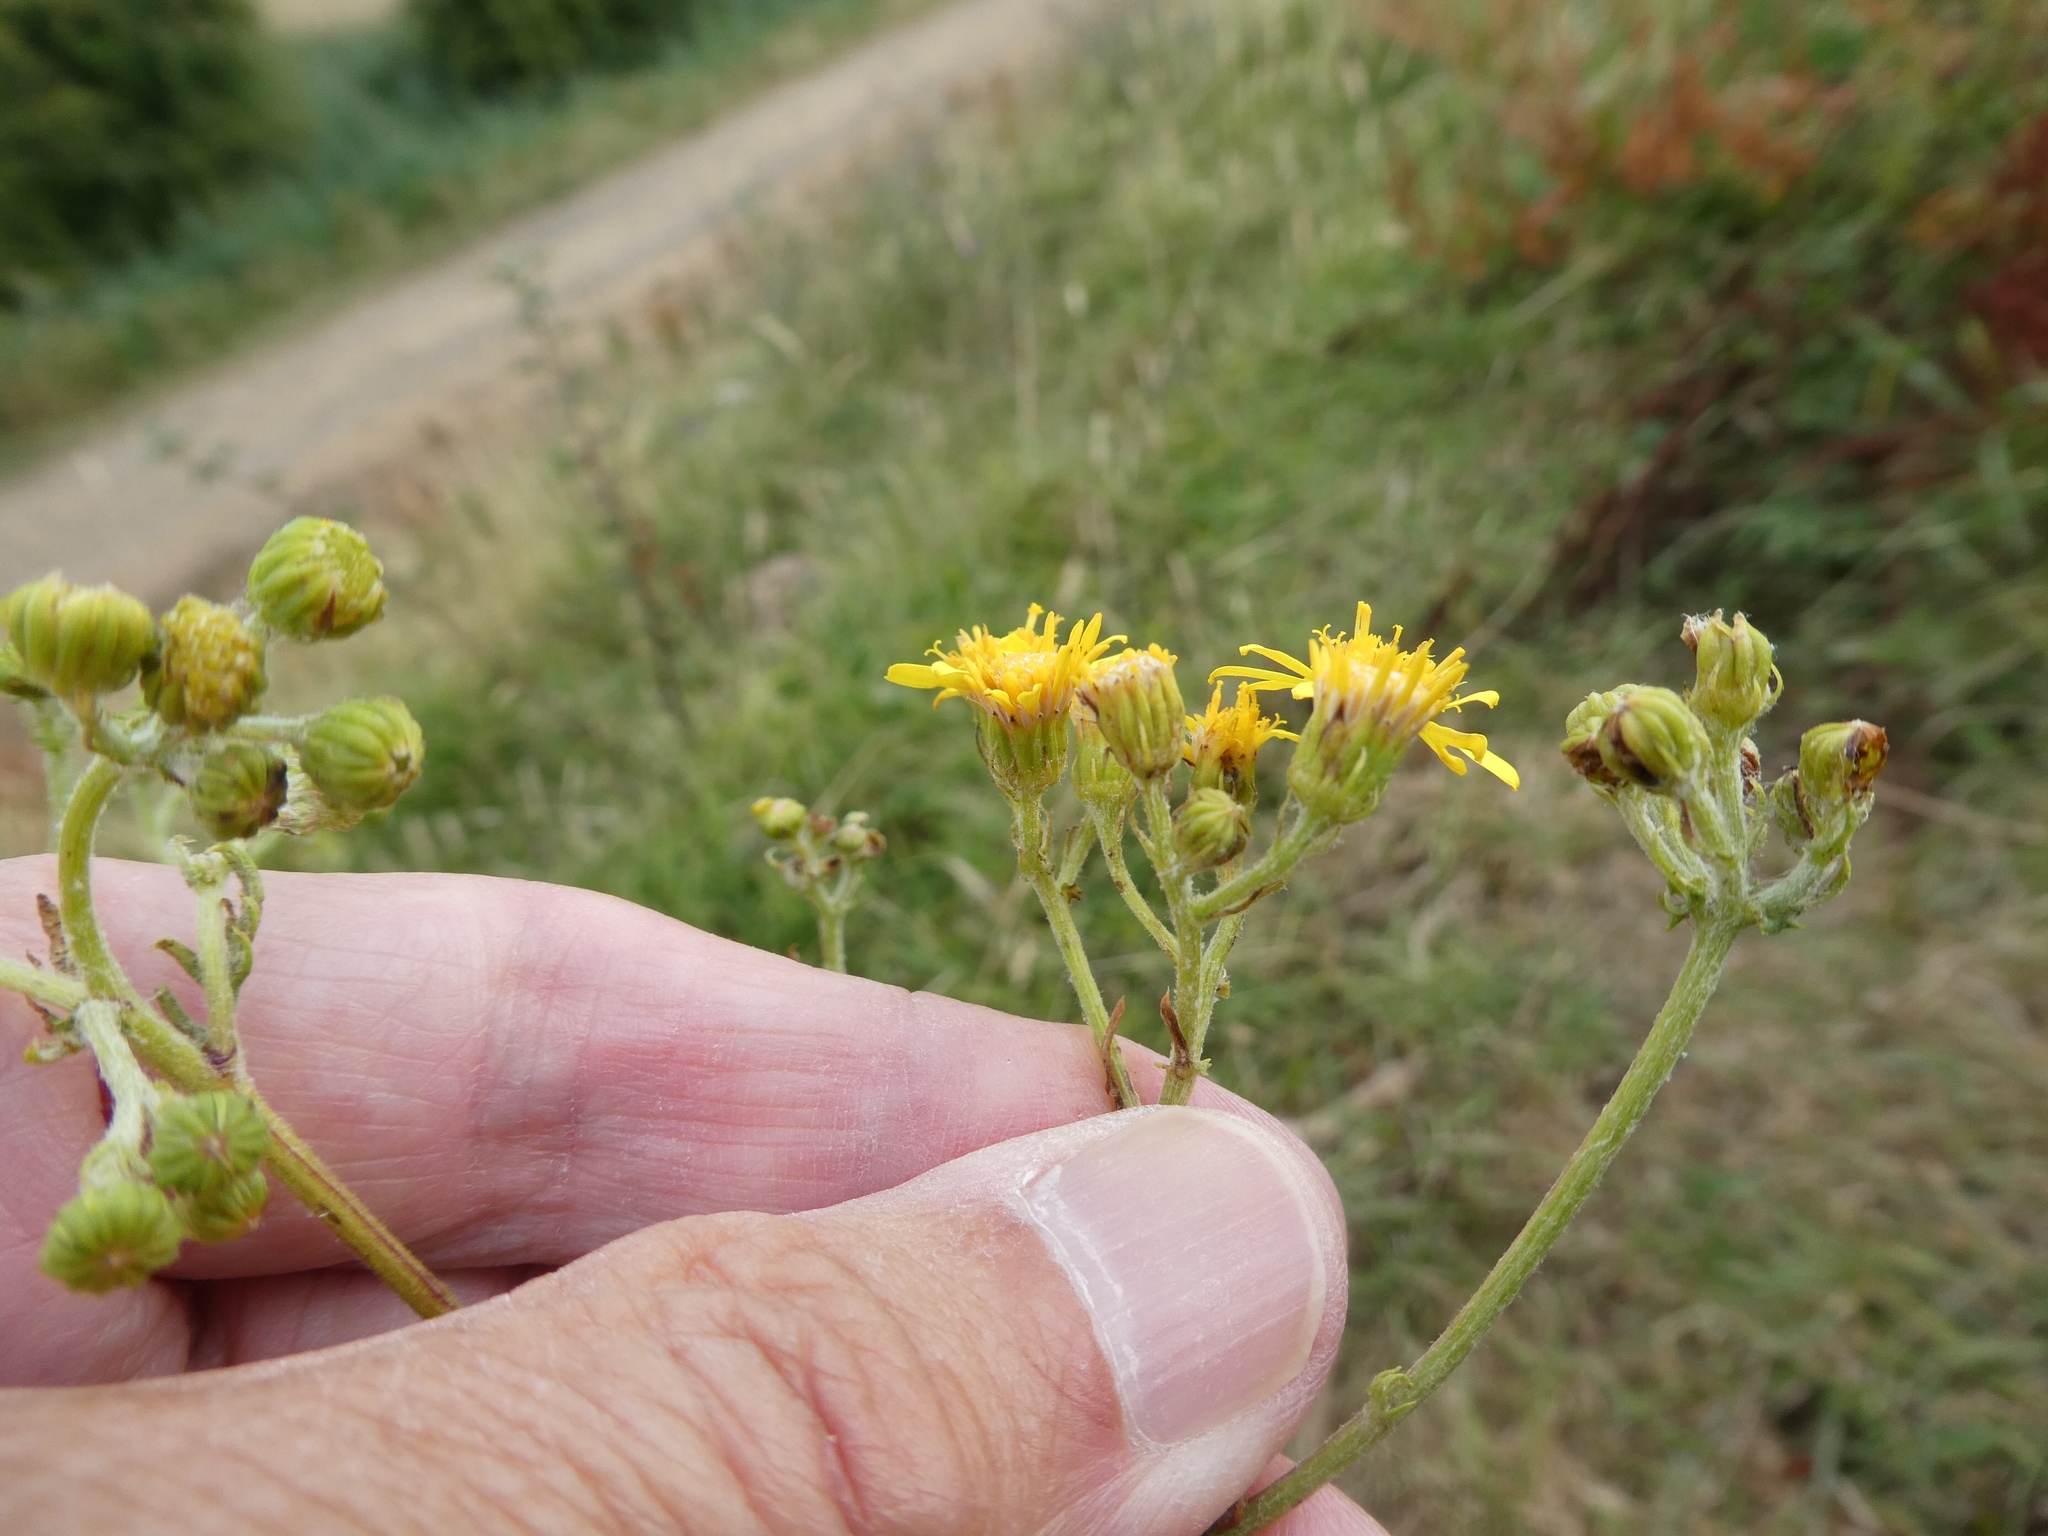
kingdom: Plantae
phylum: Tracheophyta
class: Magnoliopsida
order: Asterales
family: Asteraceae
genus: Jacobaea
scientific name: Jacobaea erucifolia
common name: Hoary ragwort
